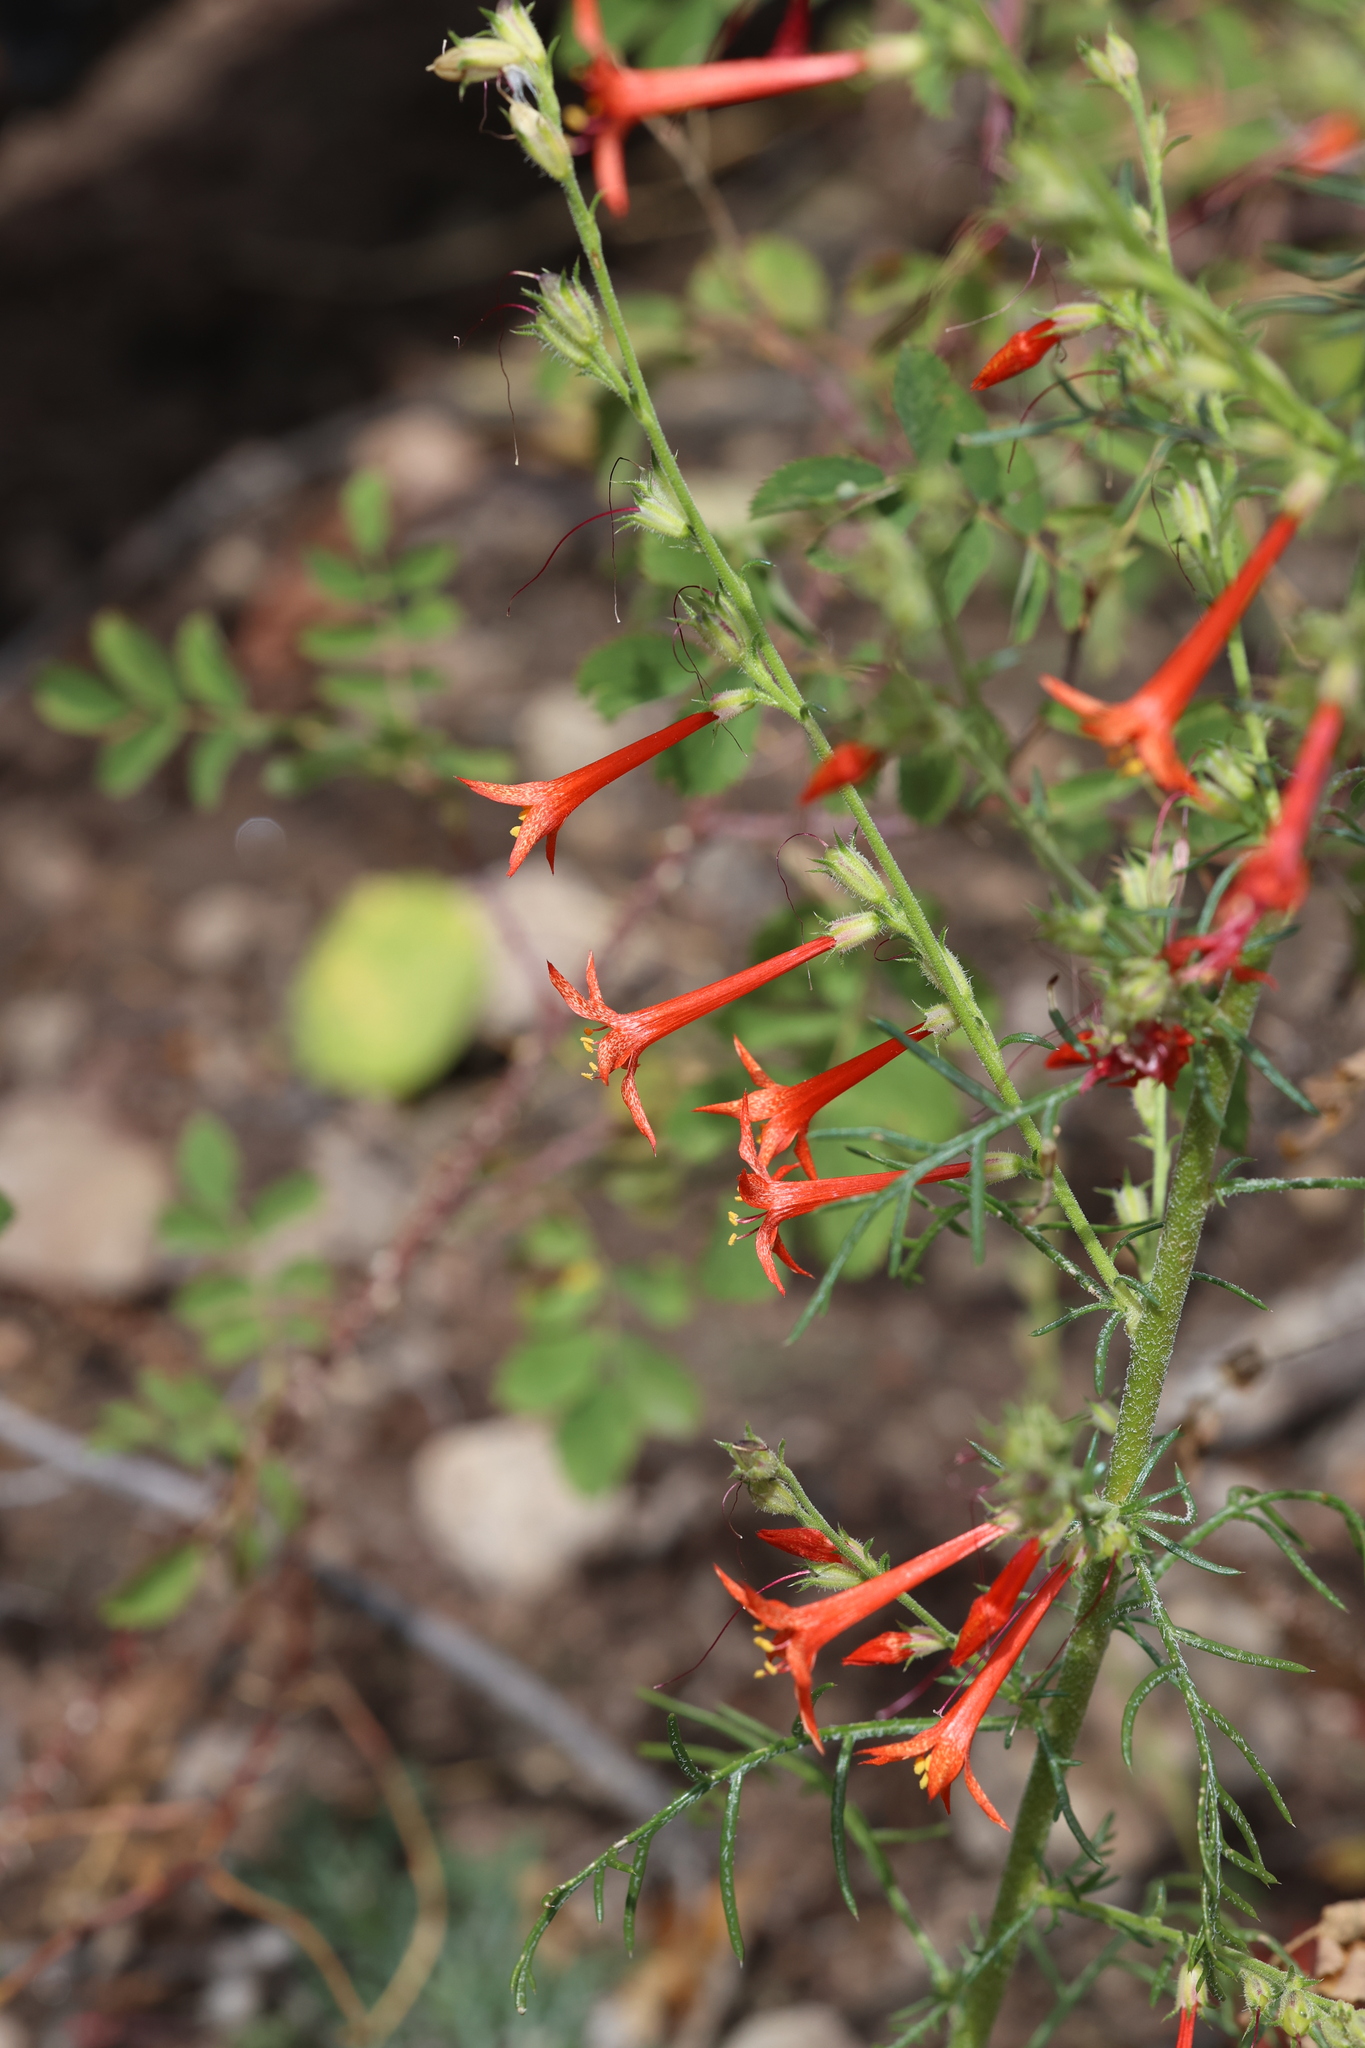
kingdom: Plantae
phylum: Tracheophyta
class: Magnoliopsida
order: Ericales
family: Polemoniaceae
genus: Ipomopsis
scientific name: Ipomopsis aggregata
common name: Scarlet gilia
